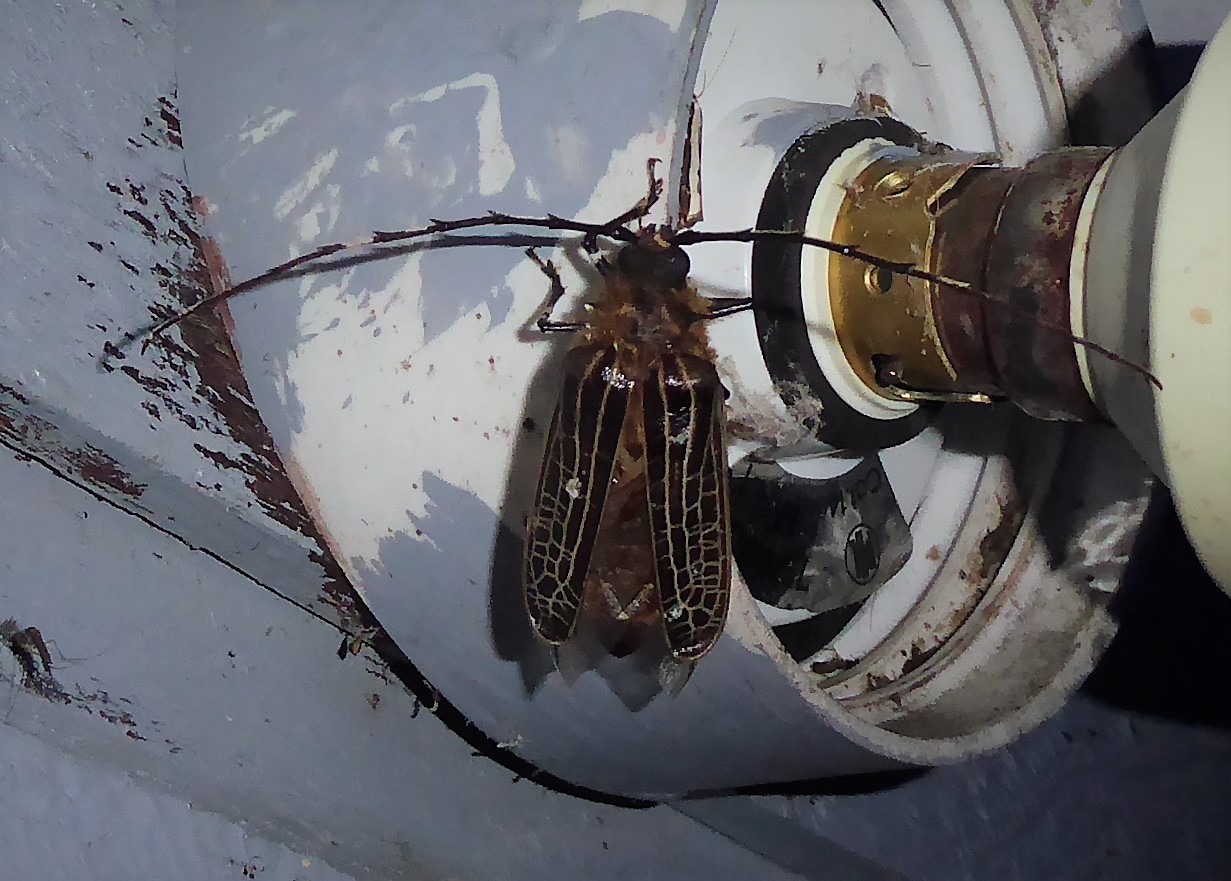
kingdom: Animalia
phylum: Arthropoda
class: Insecta
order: Coleoptera
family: Cerambycidae
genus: Prionoplus
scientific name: Prionoplus reticularis
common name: Huhu beetle
